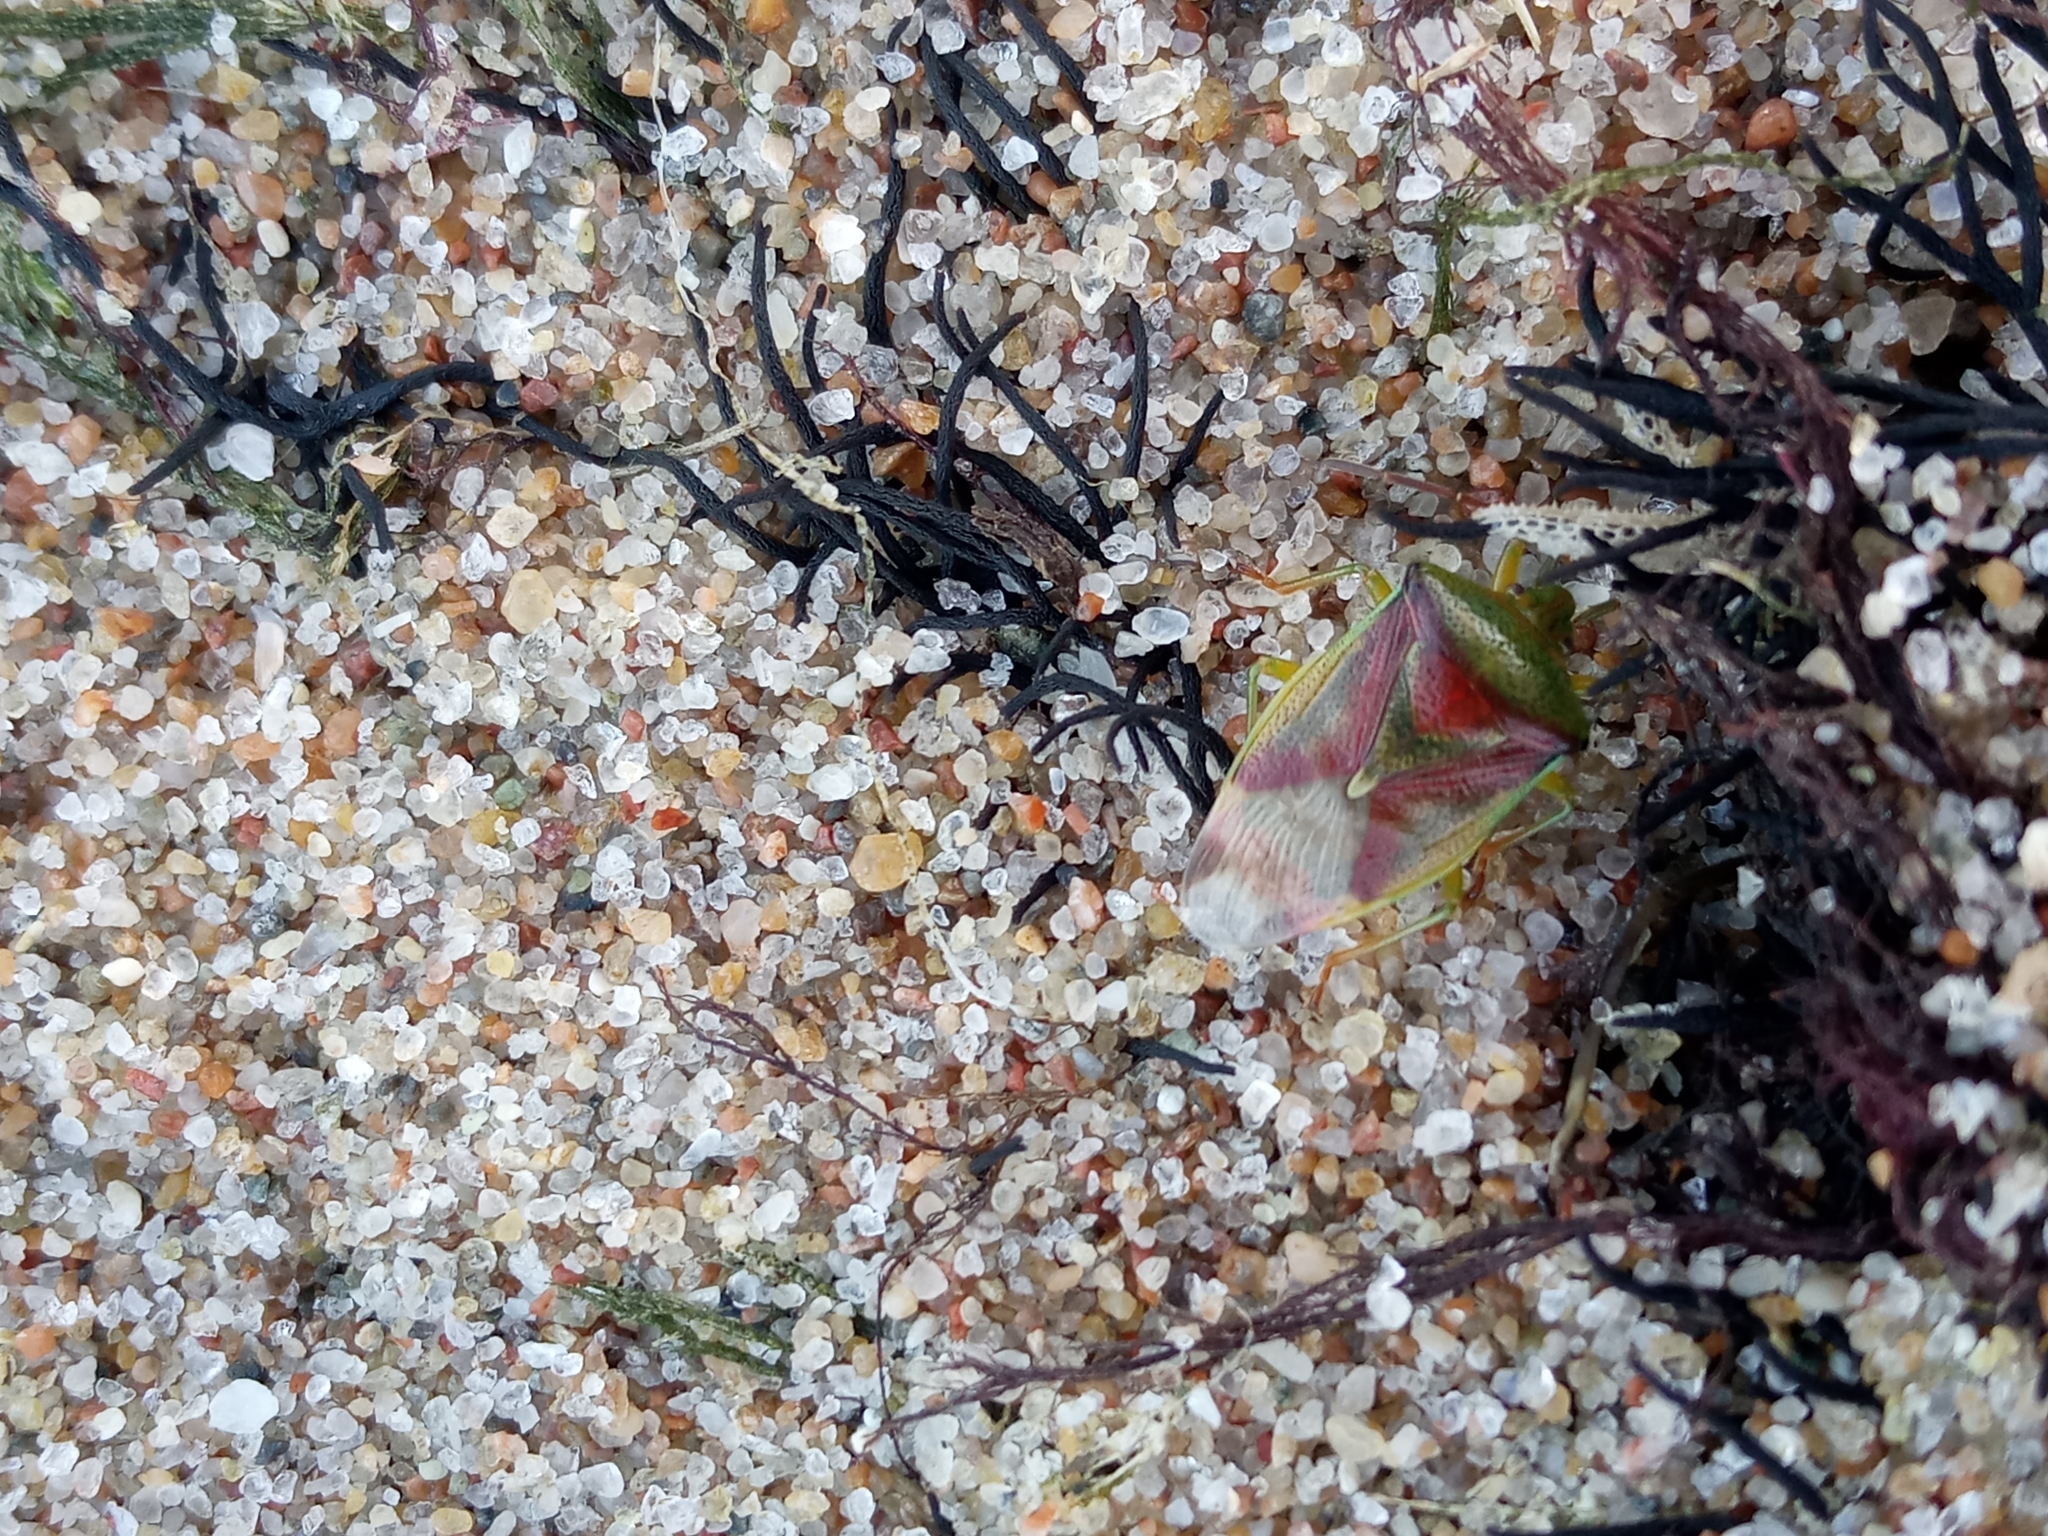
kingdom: Animalia
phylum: Arthropoda
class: Insecta
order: Hemiptera
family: Acanthosomatidae
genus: Elasmostethus
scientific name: Elasmostethus
